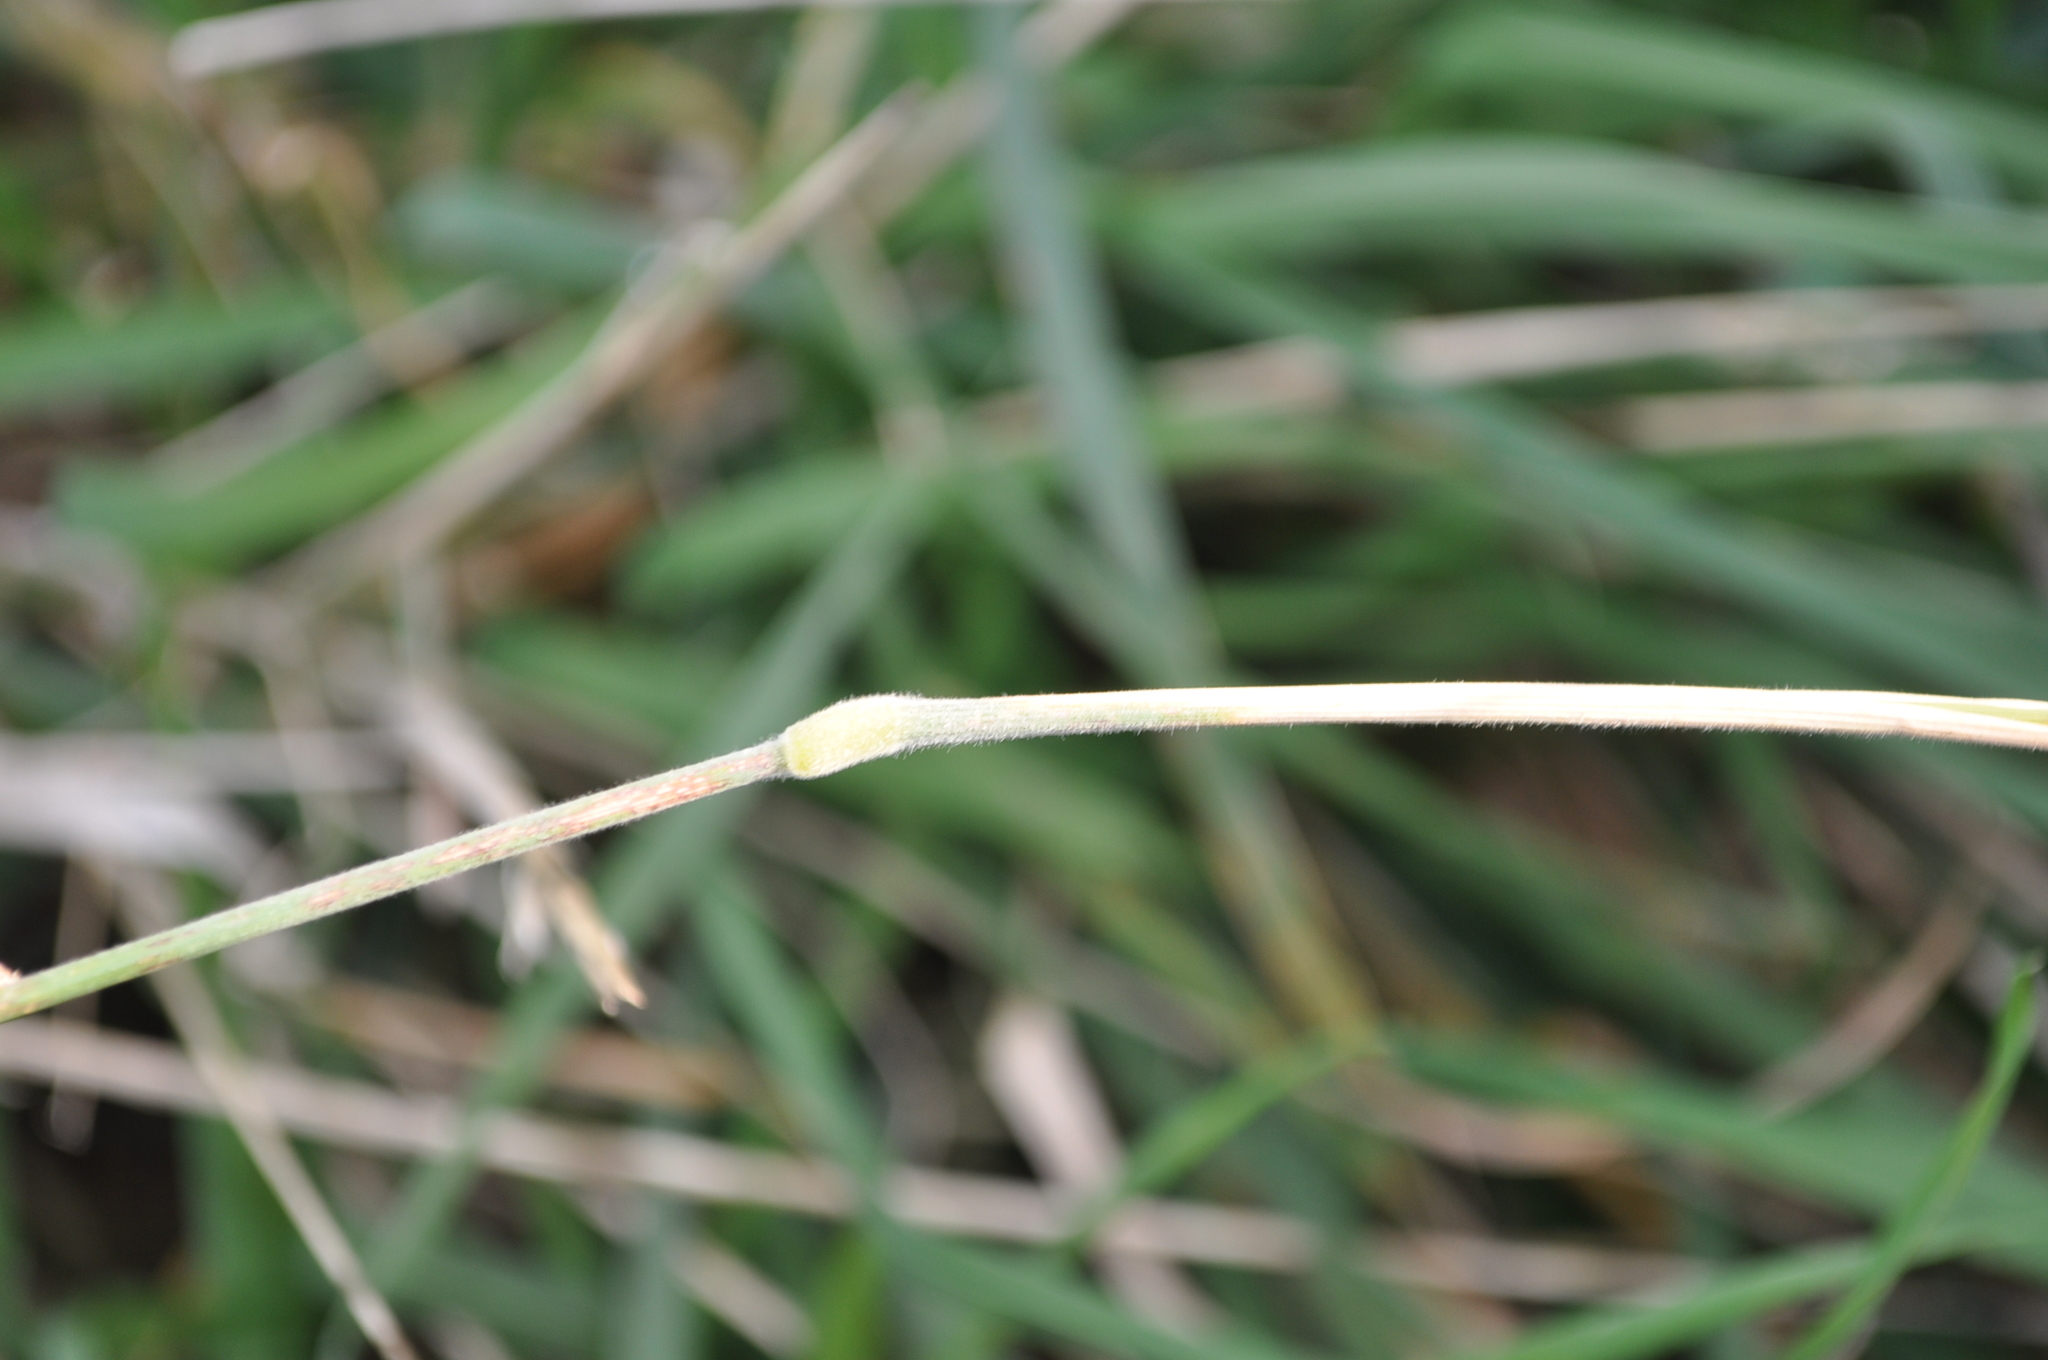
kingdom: Plantae
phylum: Tracheophyta
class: Liliopsida
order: Poales
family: Poaceae
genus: Holcus
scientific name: Holcus lanatus
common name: Yorkshire-fog
